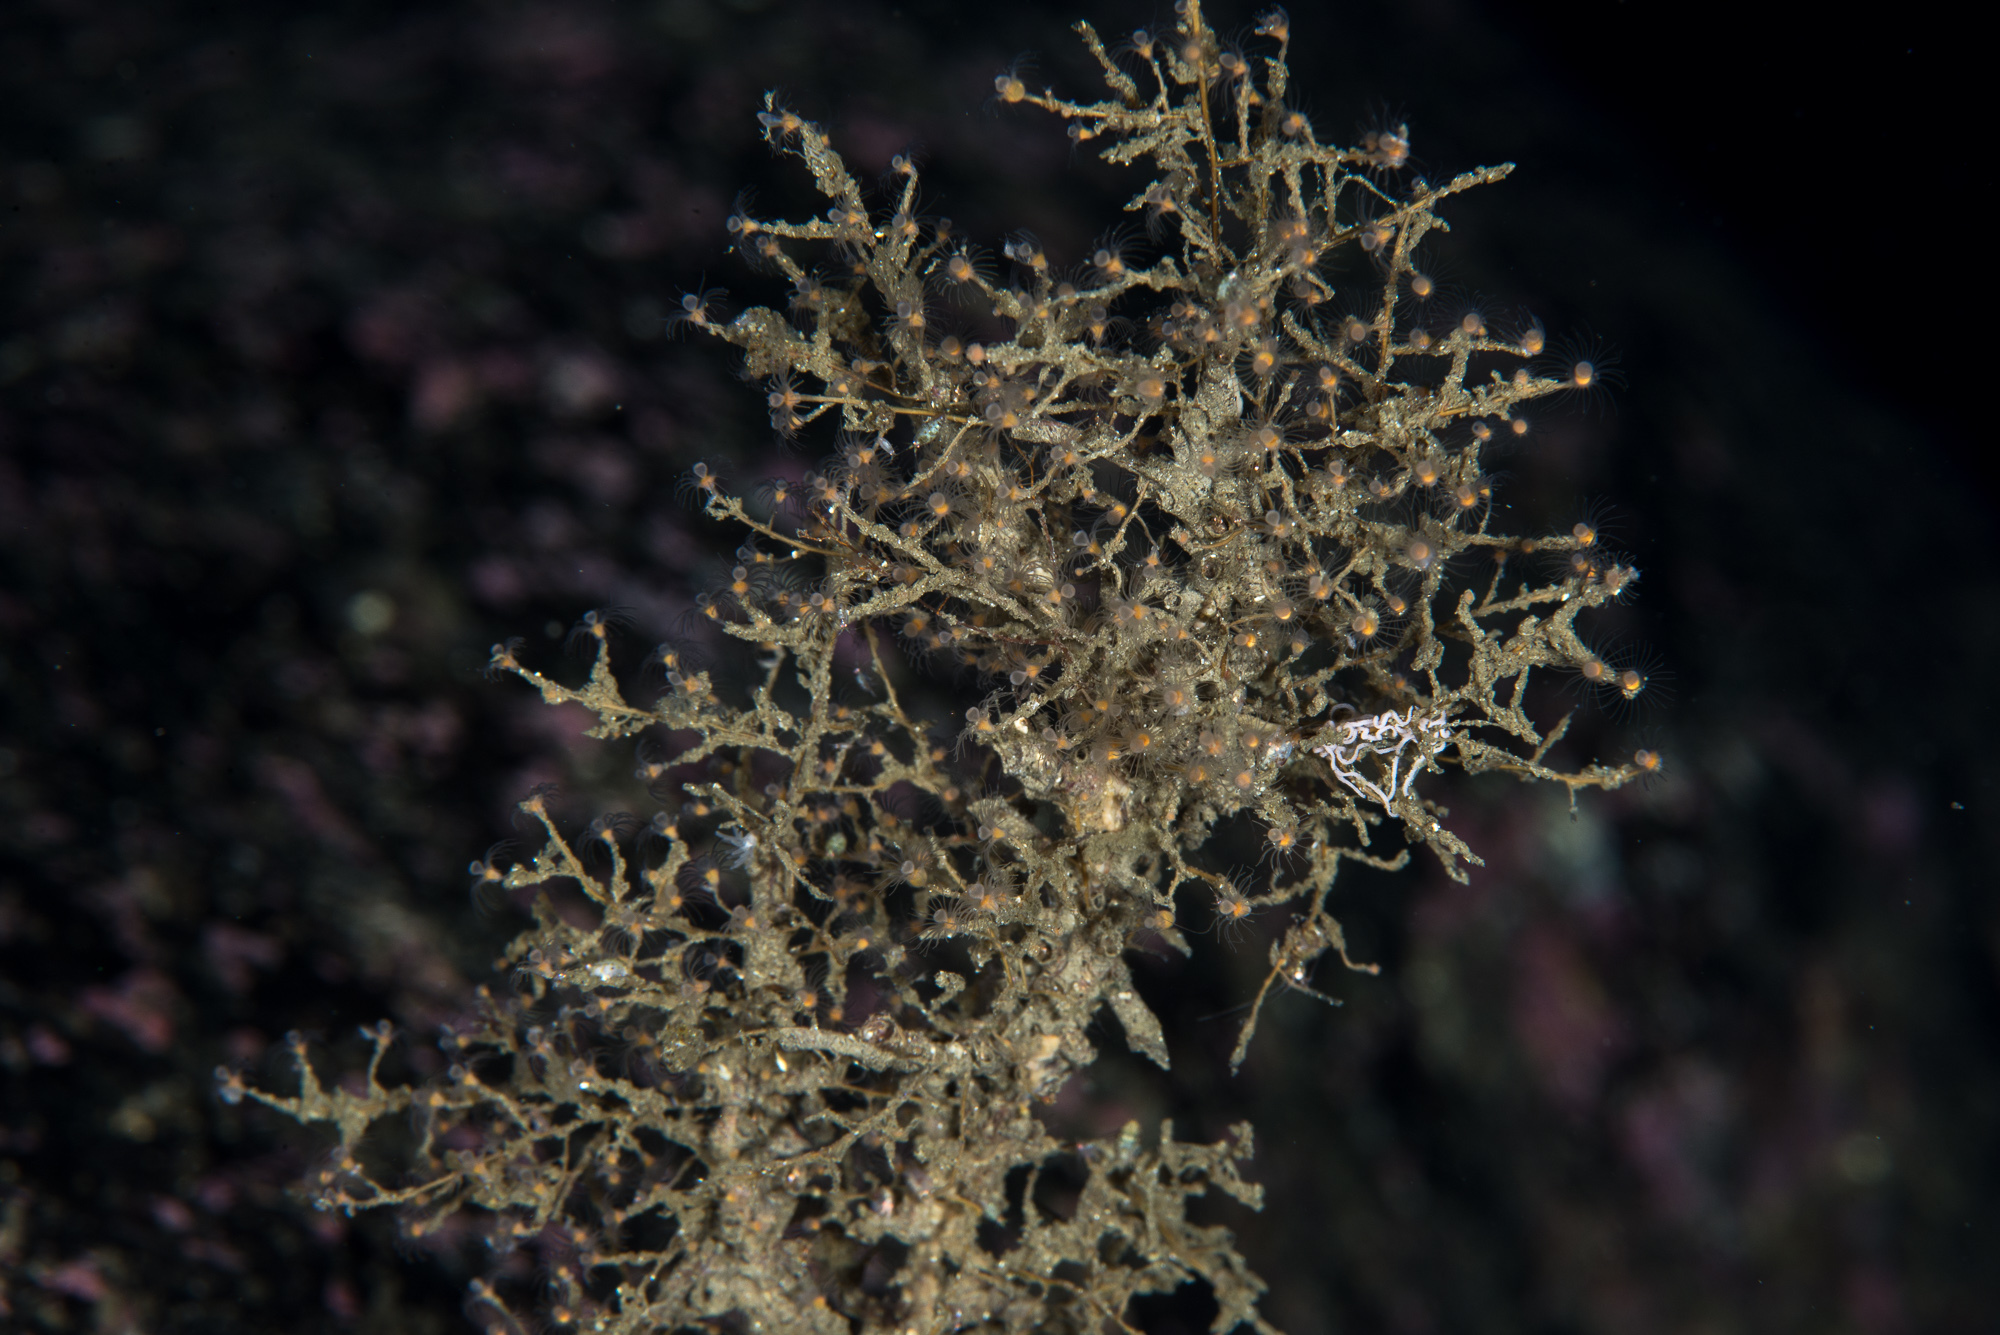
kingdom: Animalia
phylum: Mollusca
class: Gastropoda
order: Nudibranchia
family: Coryphellidae
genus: Coryphella
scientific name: Coryphella orjani
